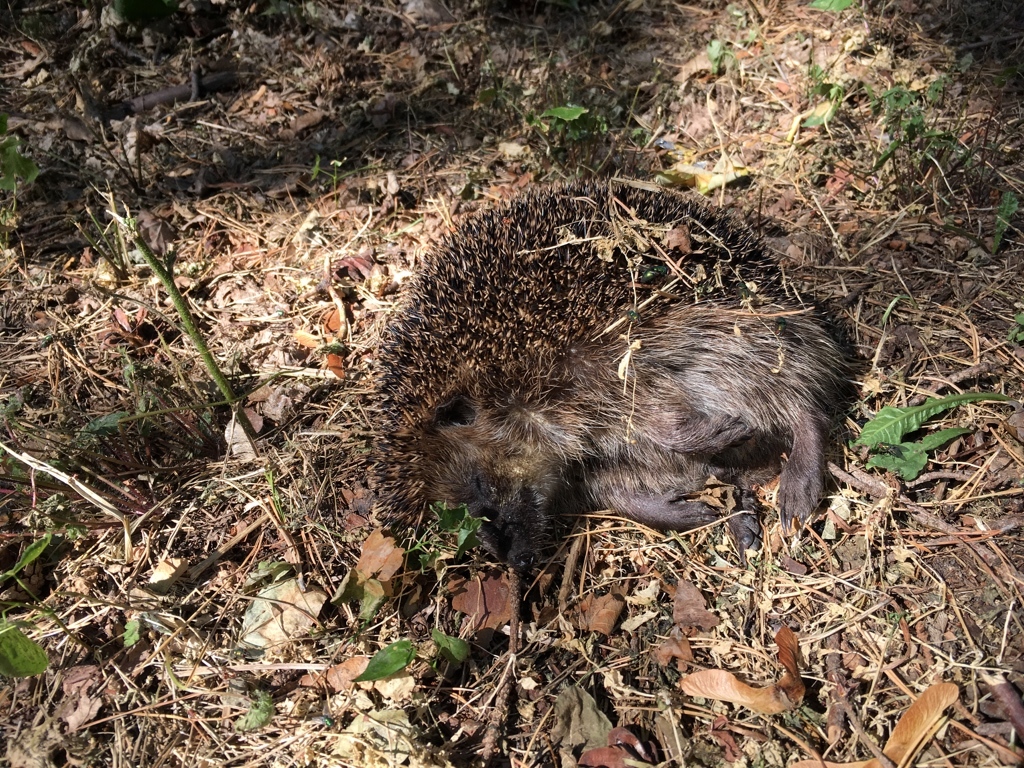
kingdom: Animalia
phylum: Chordata
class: Mammalia
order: Erinaceomorpha
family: Erinaceidae
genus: Erinaceus
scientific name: Erinaceus europaeus
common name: West european hedgehog
